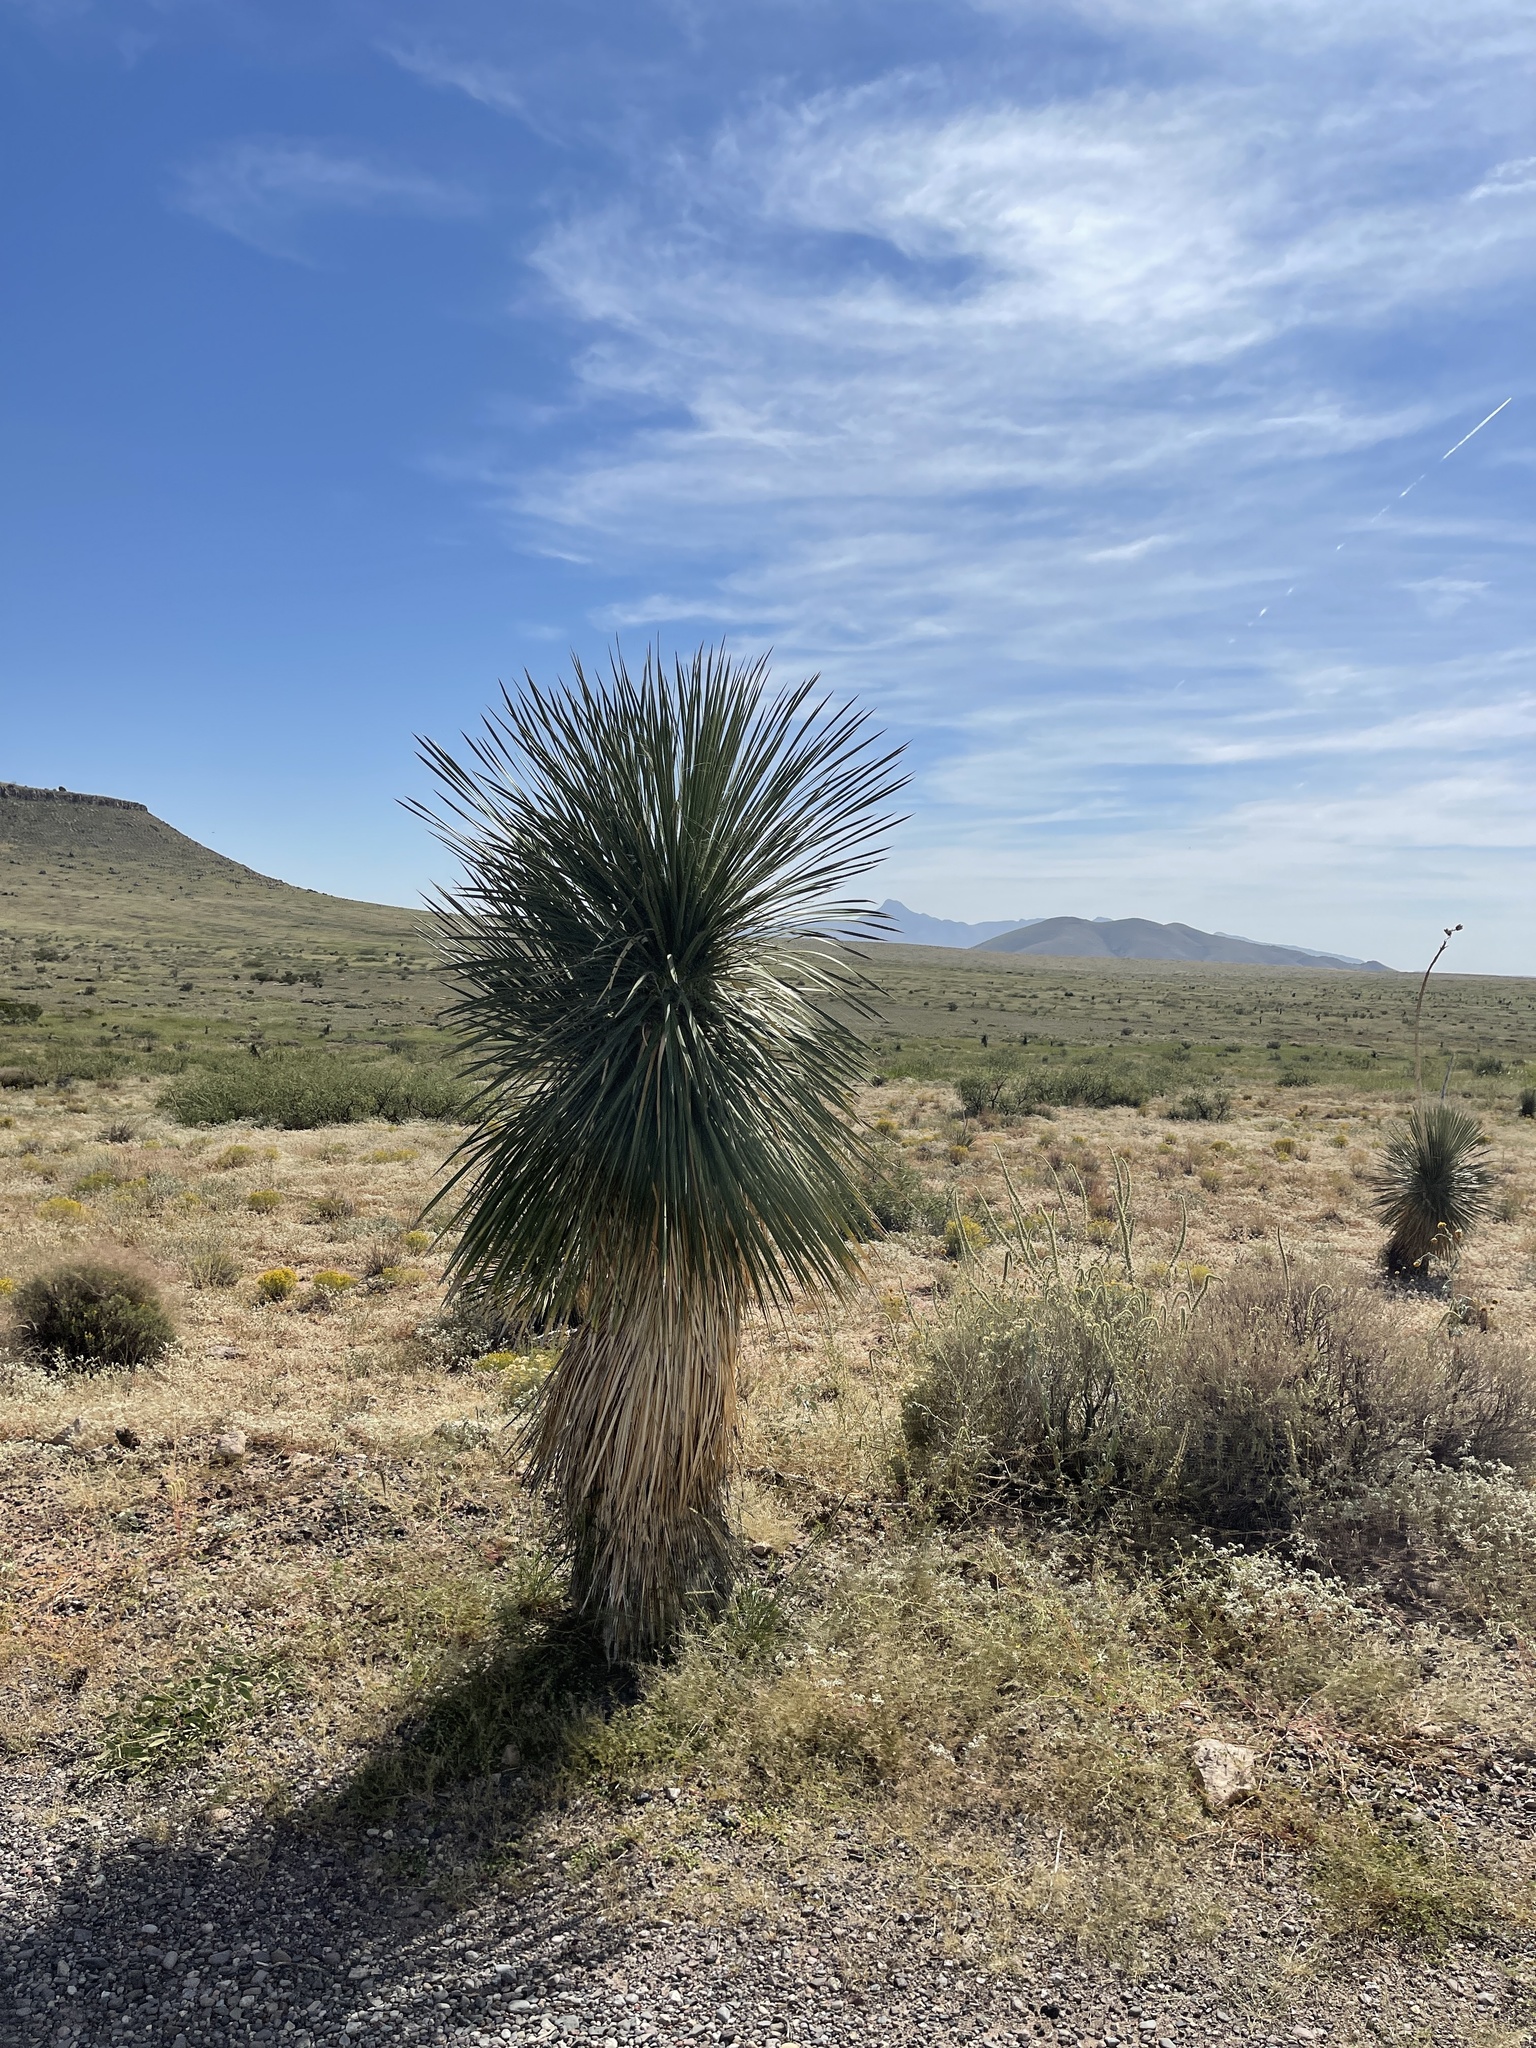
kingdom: Plantae
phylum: Tracheophyta
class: Liliopsida
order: Asparagales
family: Asparagaceae
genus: Yucca
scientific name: Yucca elata
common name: Palmella
